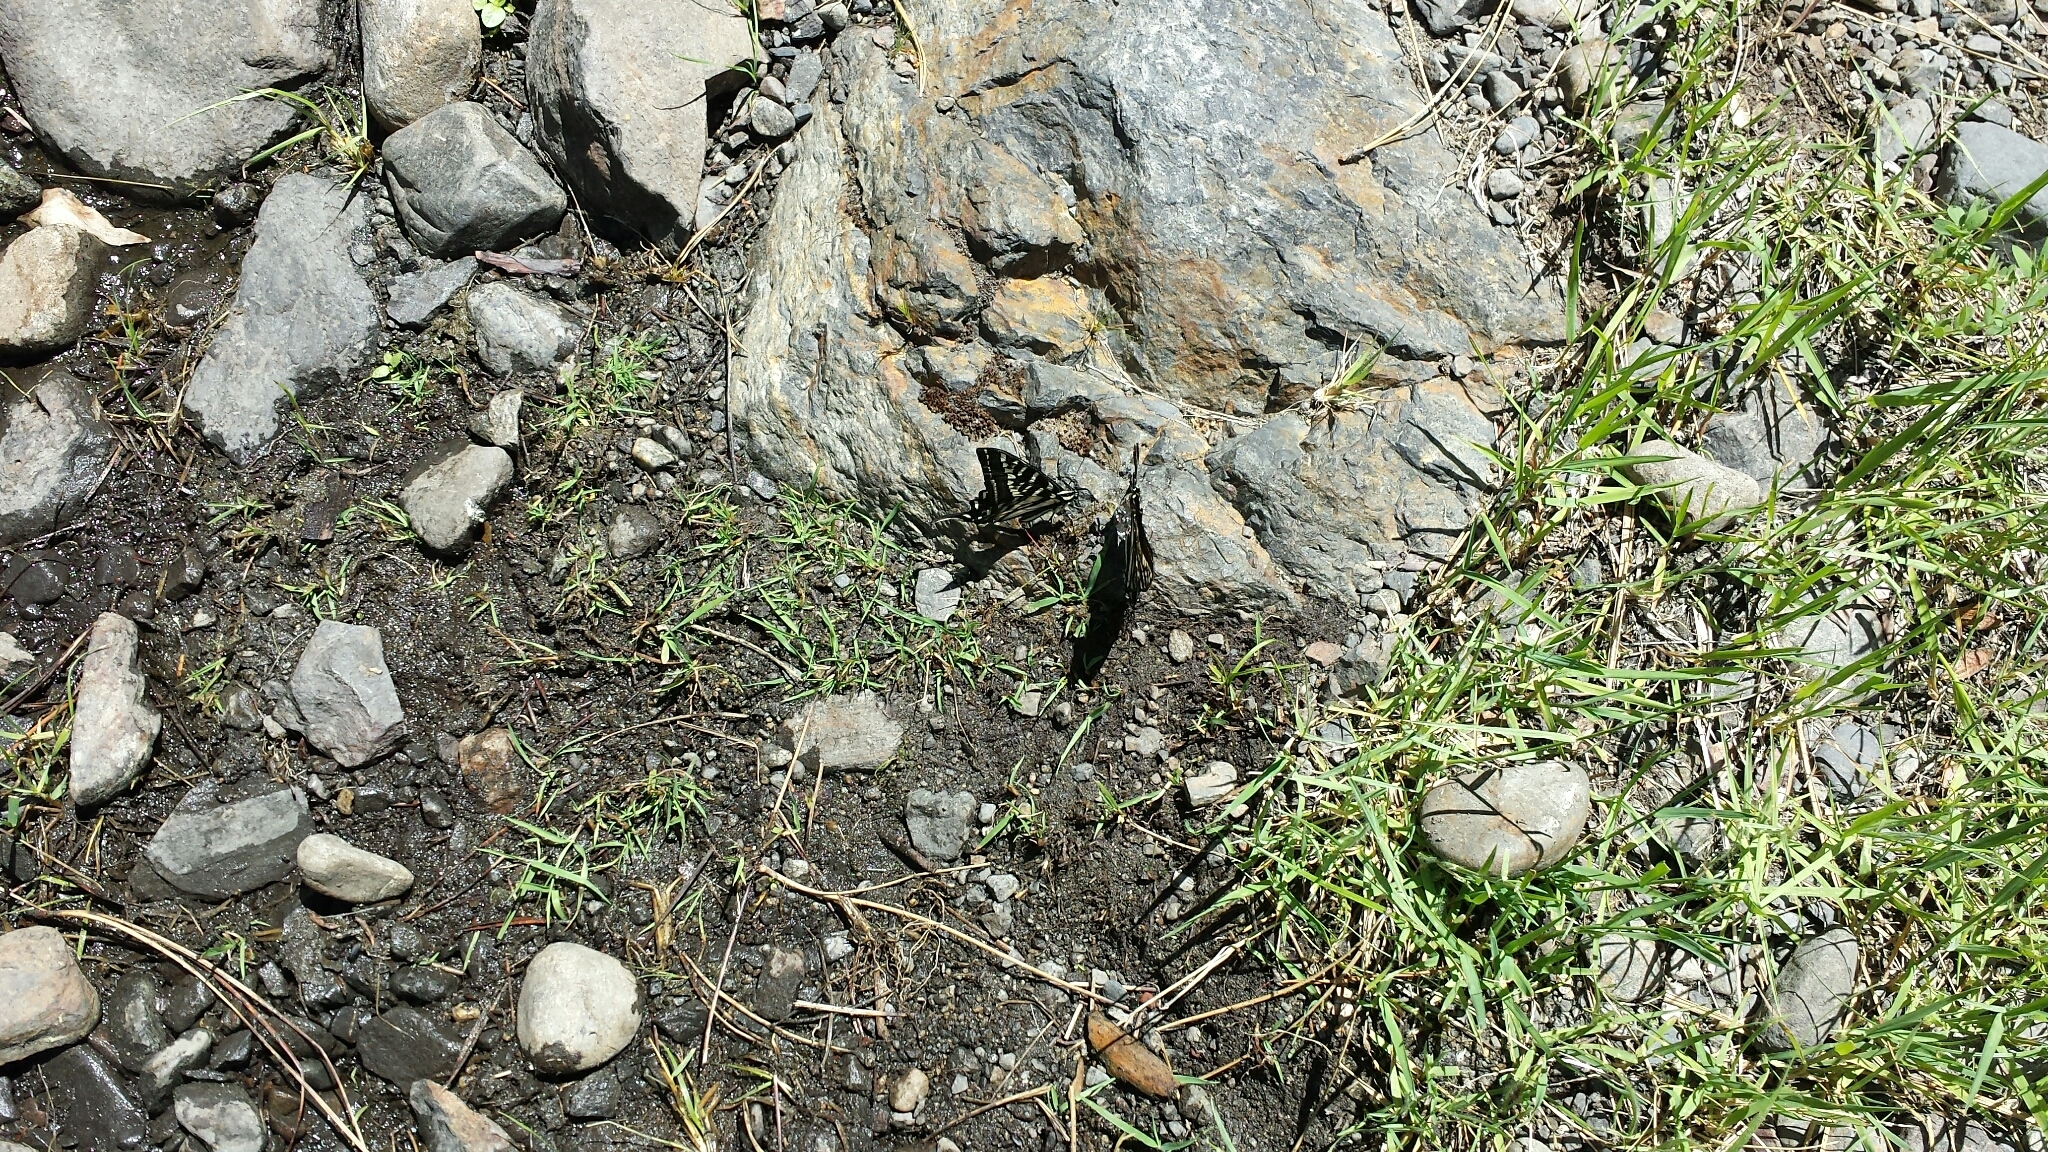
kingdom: Animalia
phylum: Arthropoda
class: Insecta
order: Lepidoptera
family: Papilionidae
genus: Papilio
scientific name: Papilio eurymedon
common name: Pale tiger swallowtail
